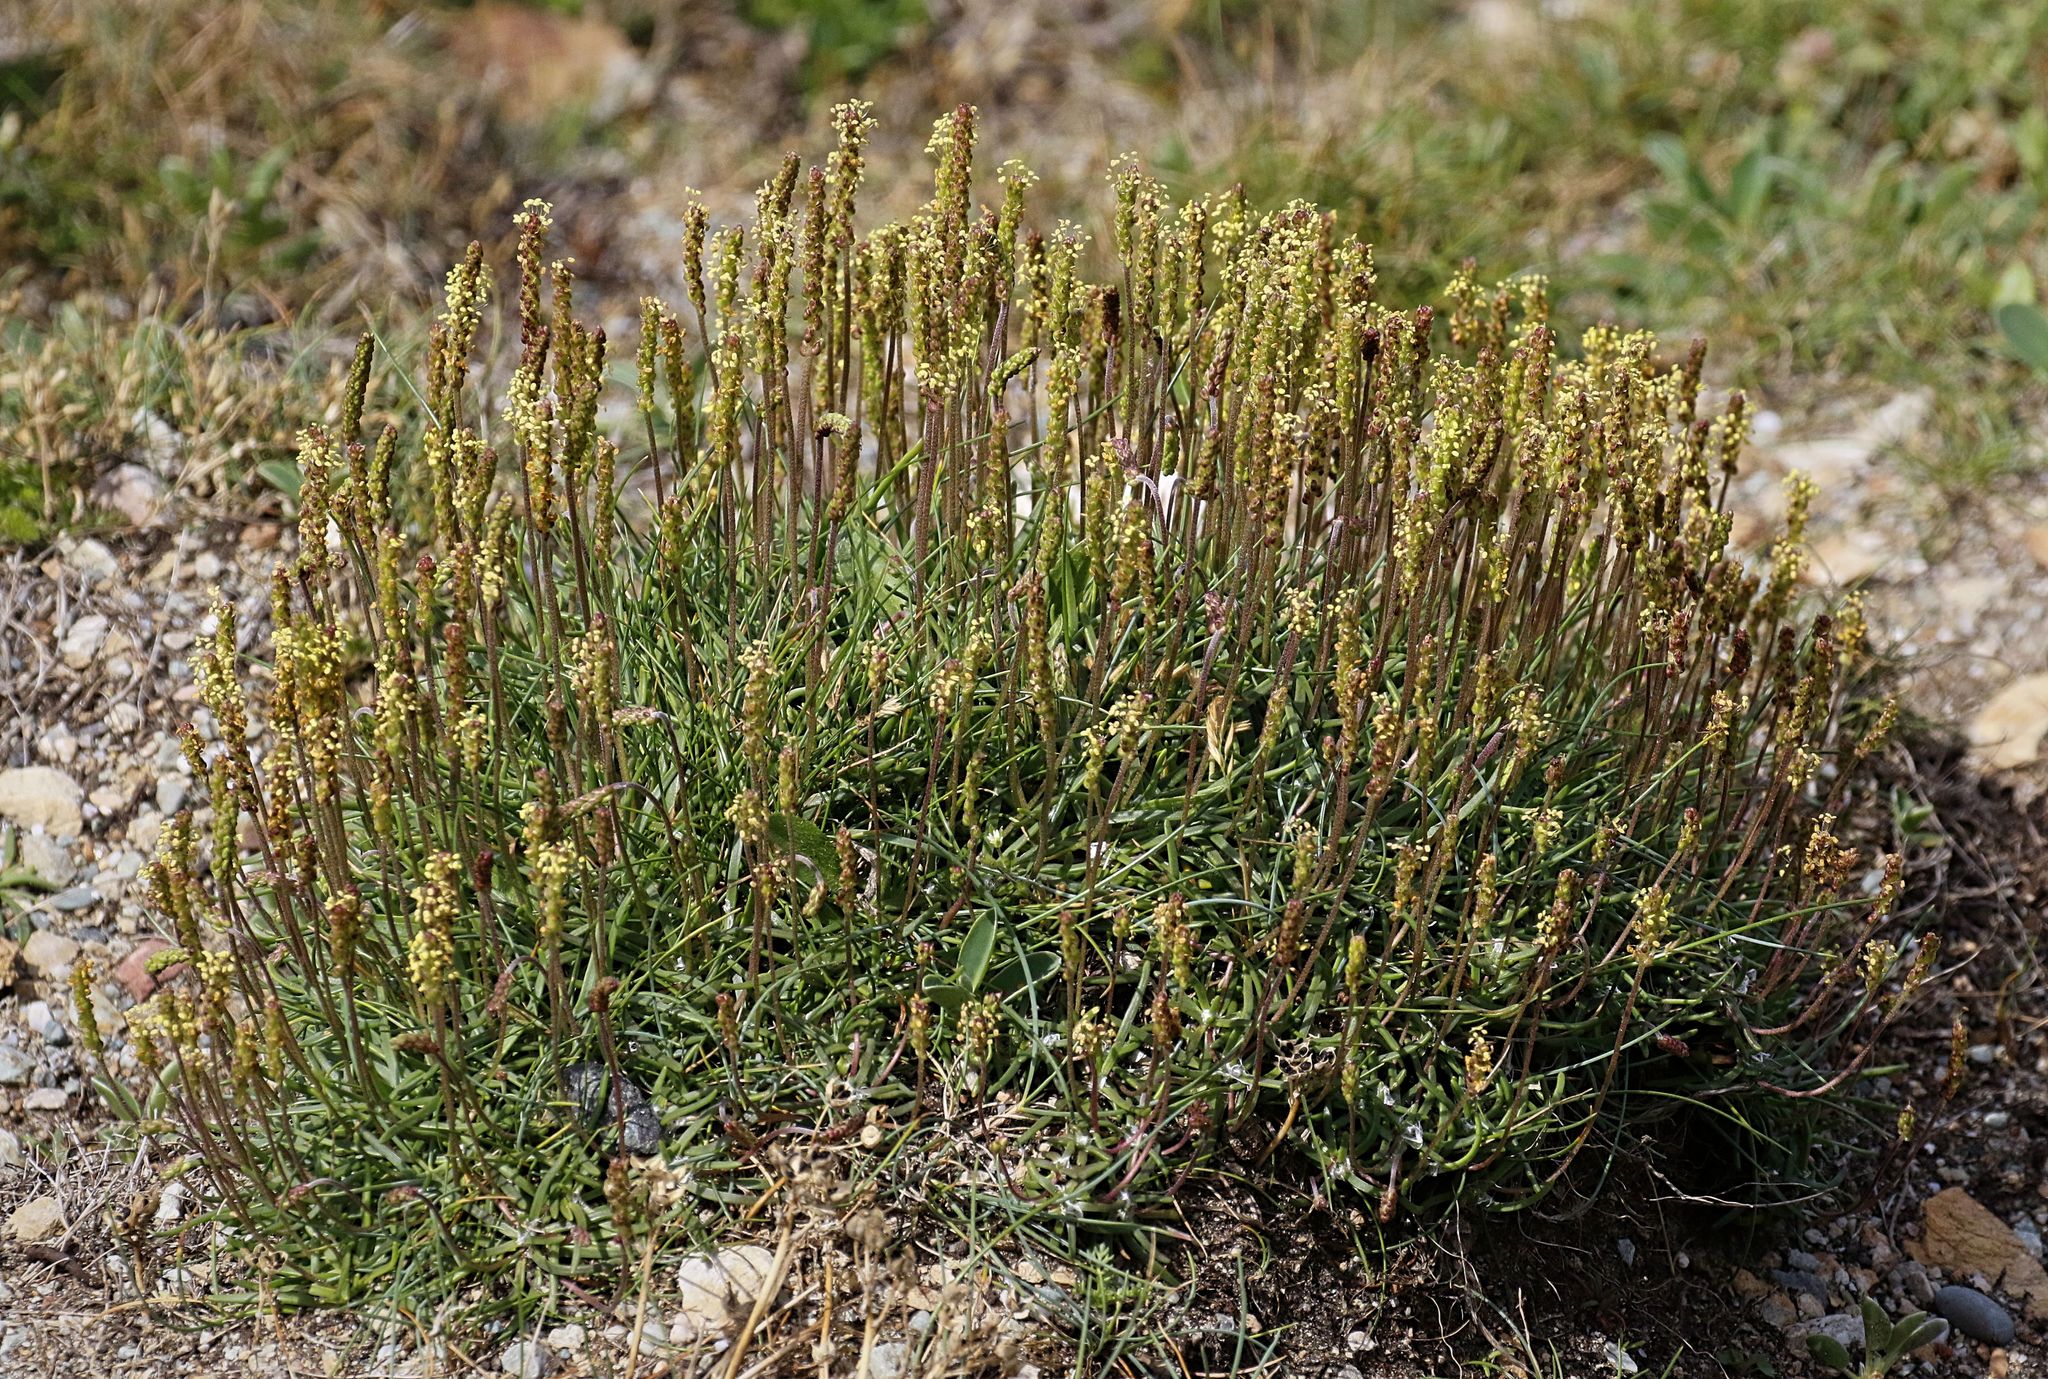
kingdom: Plantae
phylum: Tracheophyta
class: Magnoliopsida
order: Lamiales
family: Plantaginaceae
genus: Plantago
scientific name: Plantago maritima
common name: Sea plantain
